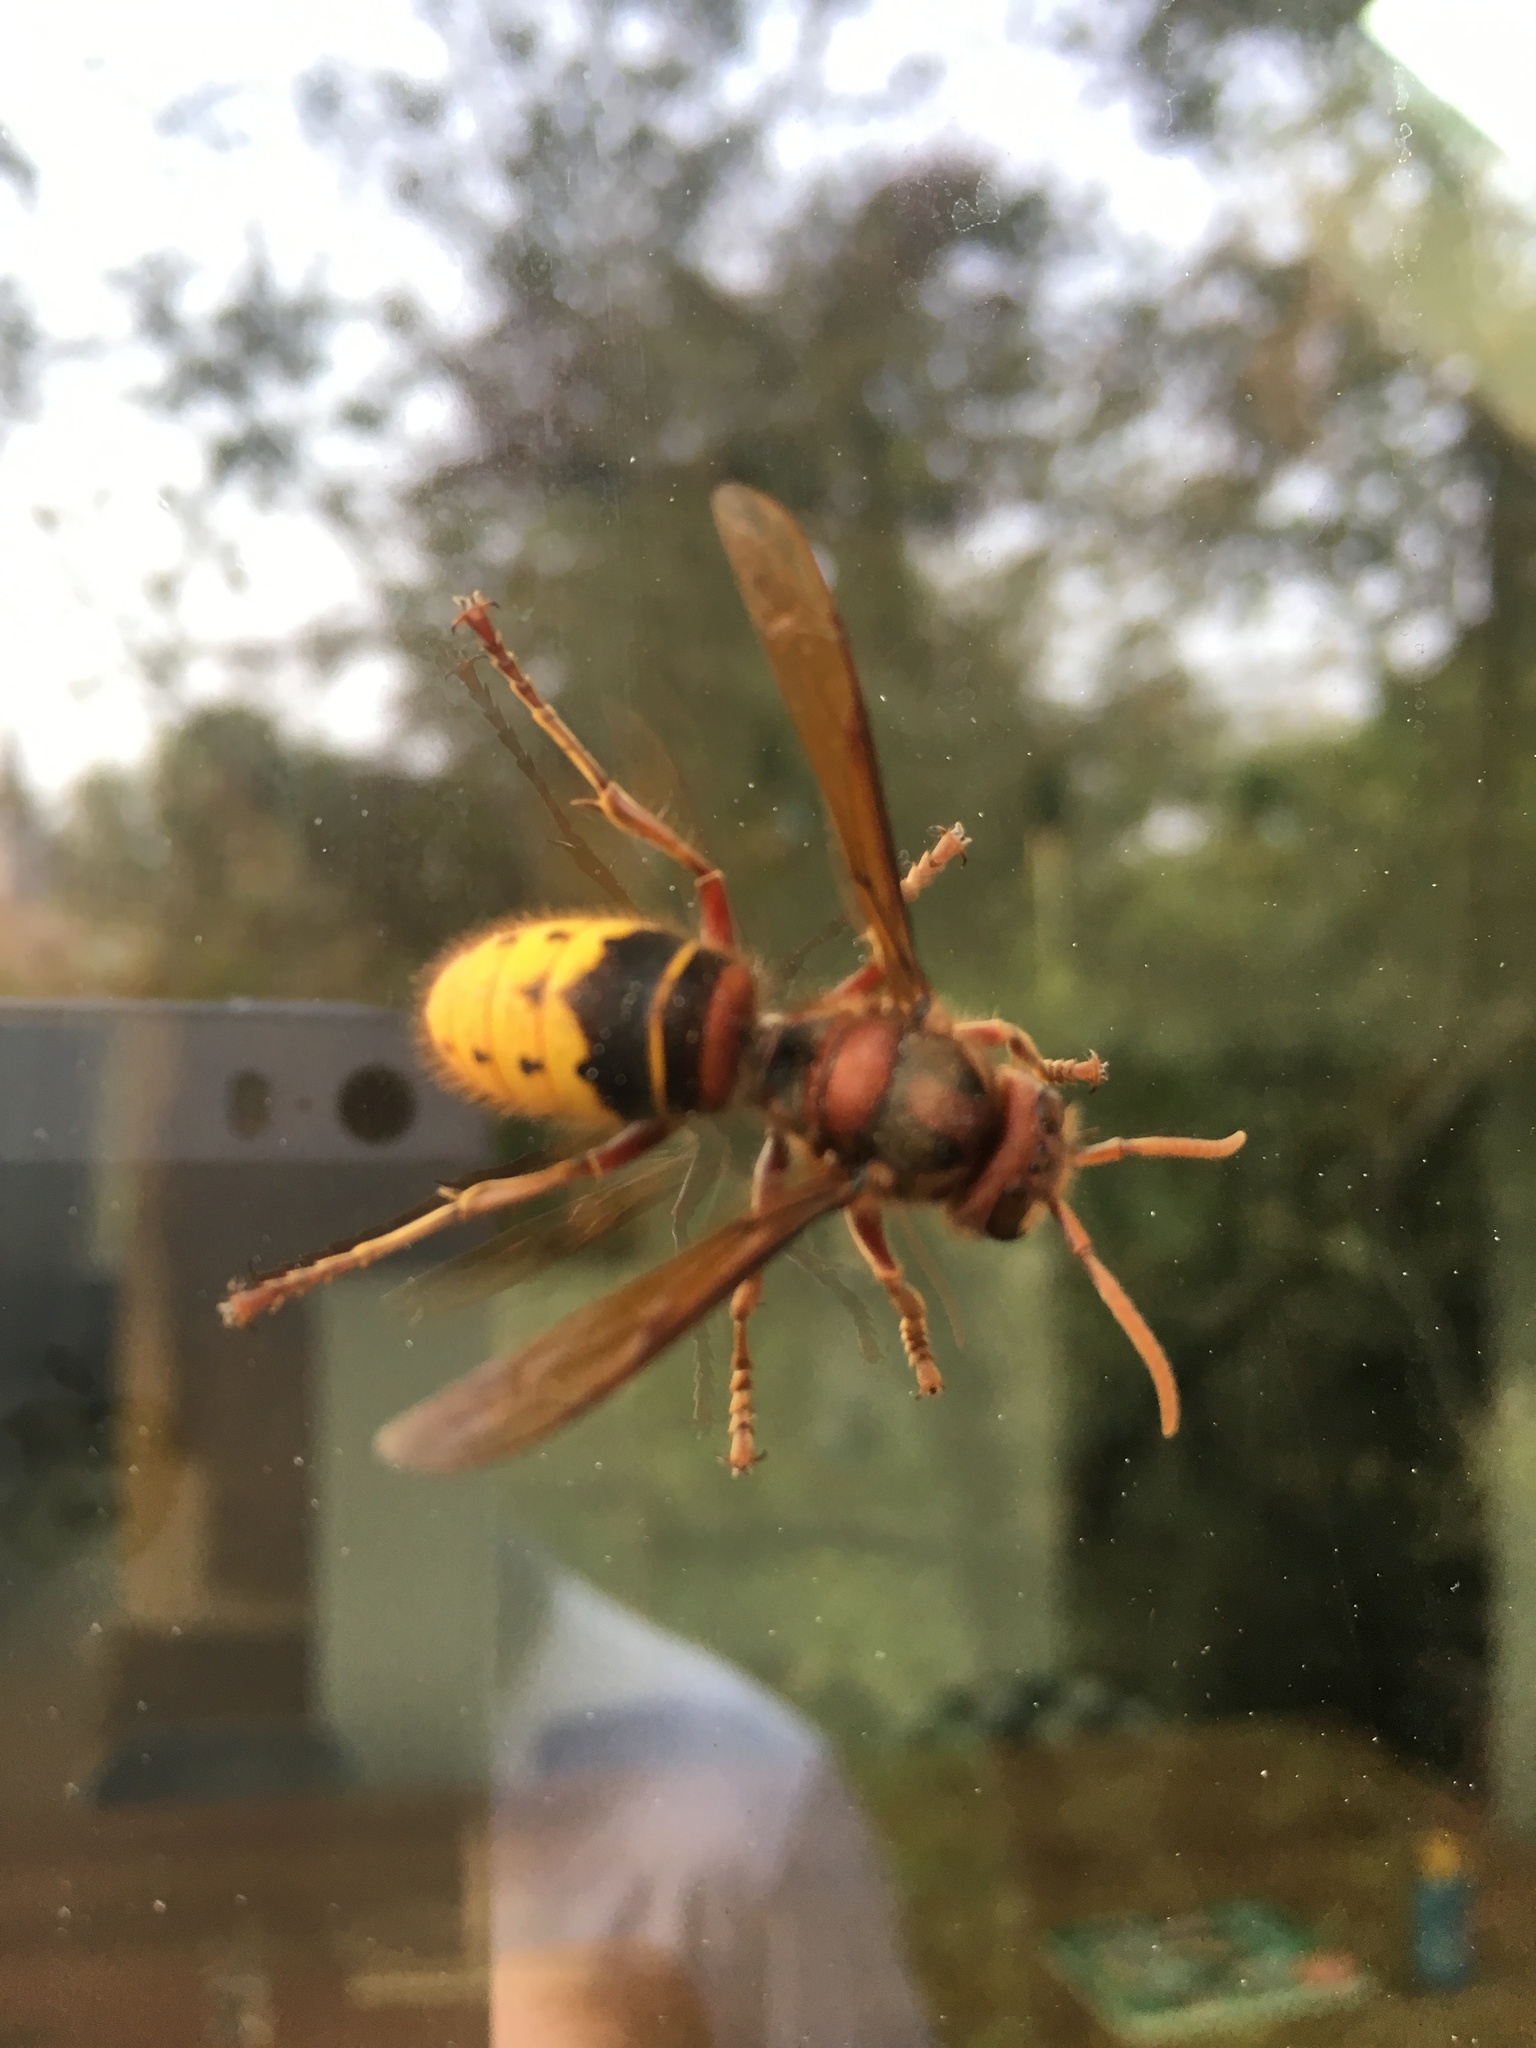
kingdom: Animalia
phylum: Arthropoda
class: Insecta
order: Hymenoptera
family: Vespidae
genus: Vespa
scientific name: Vespa crabro
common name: Hornet
